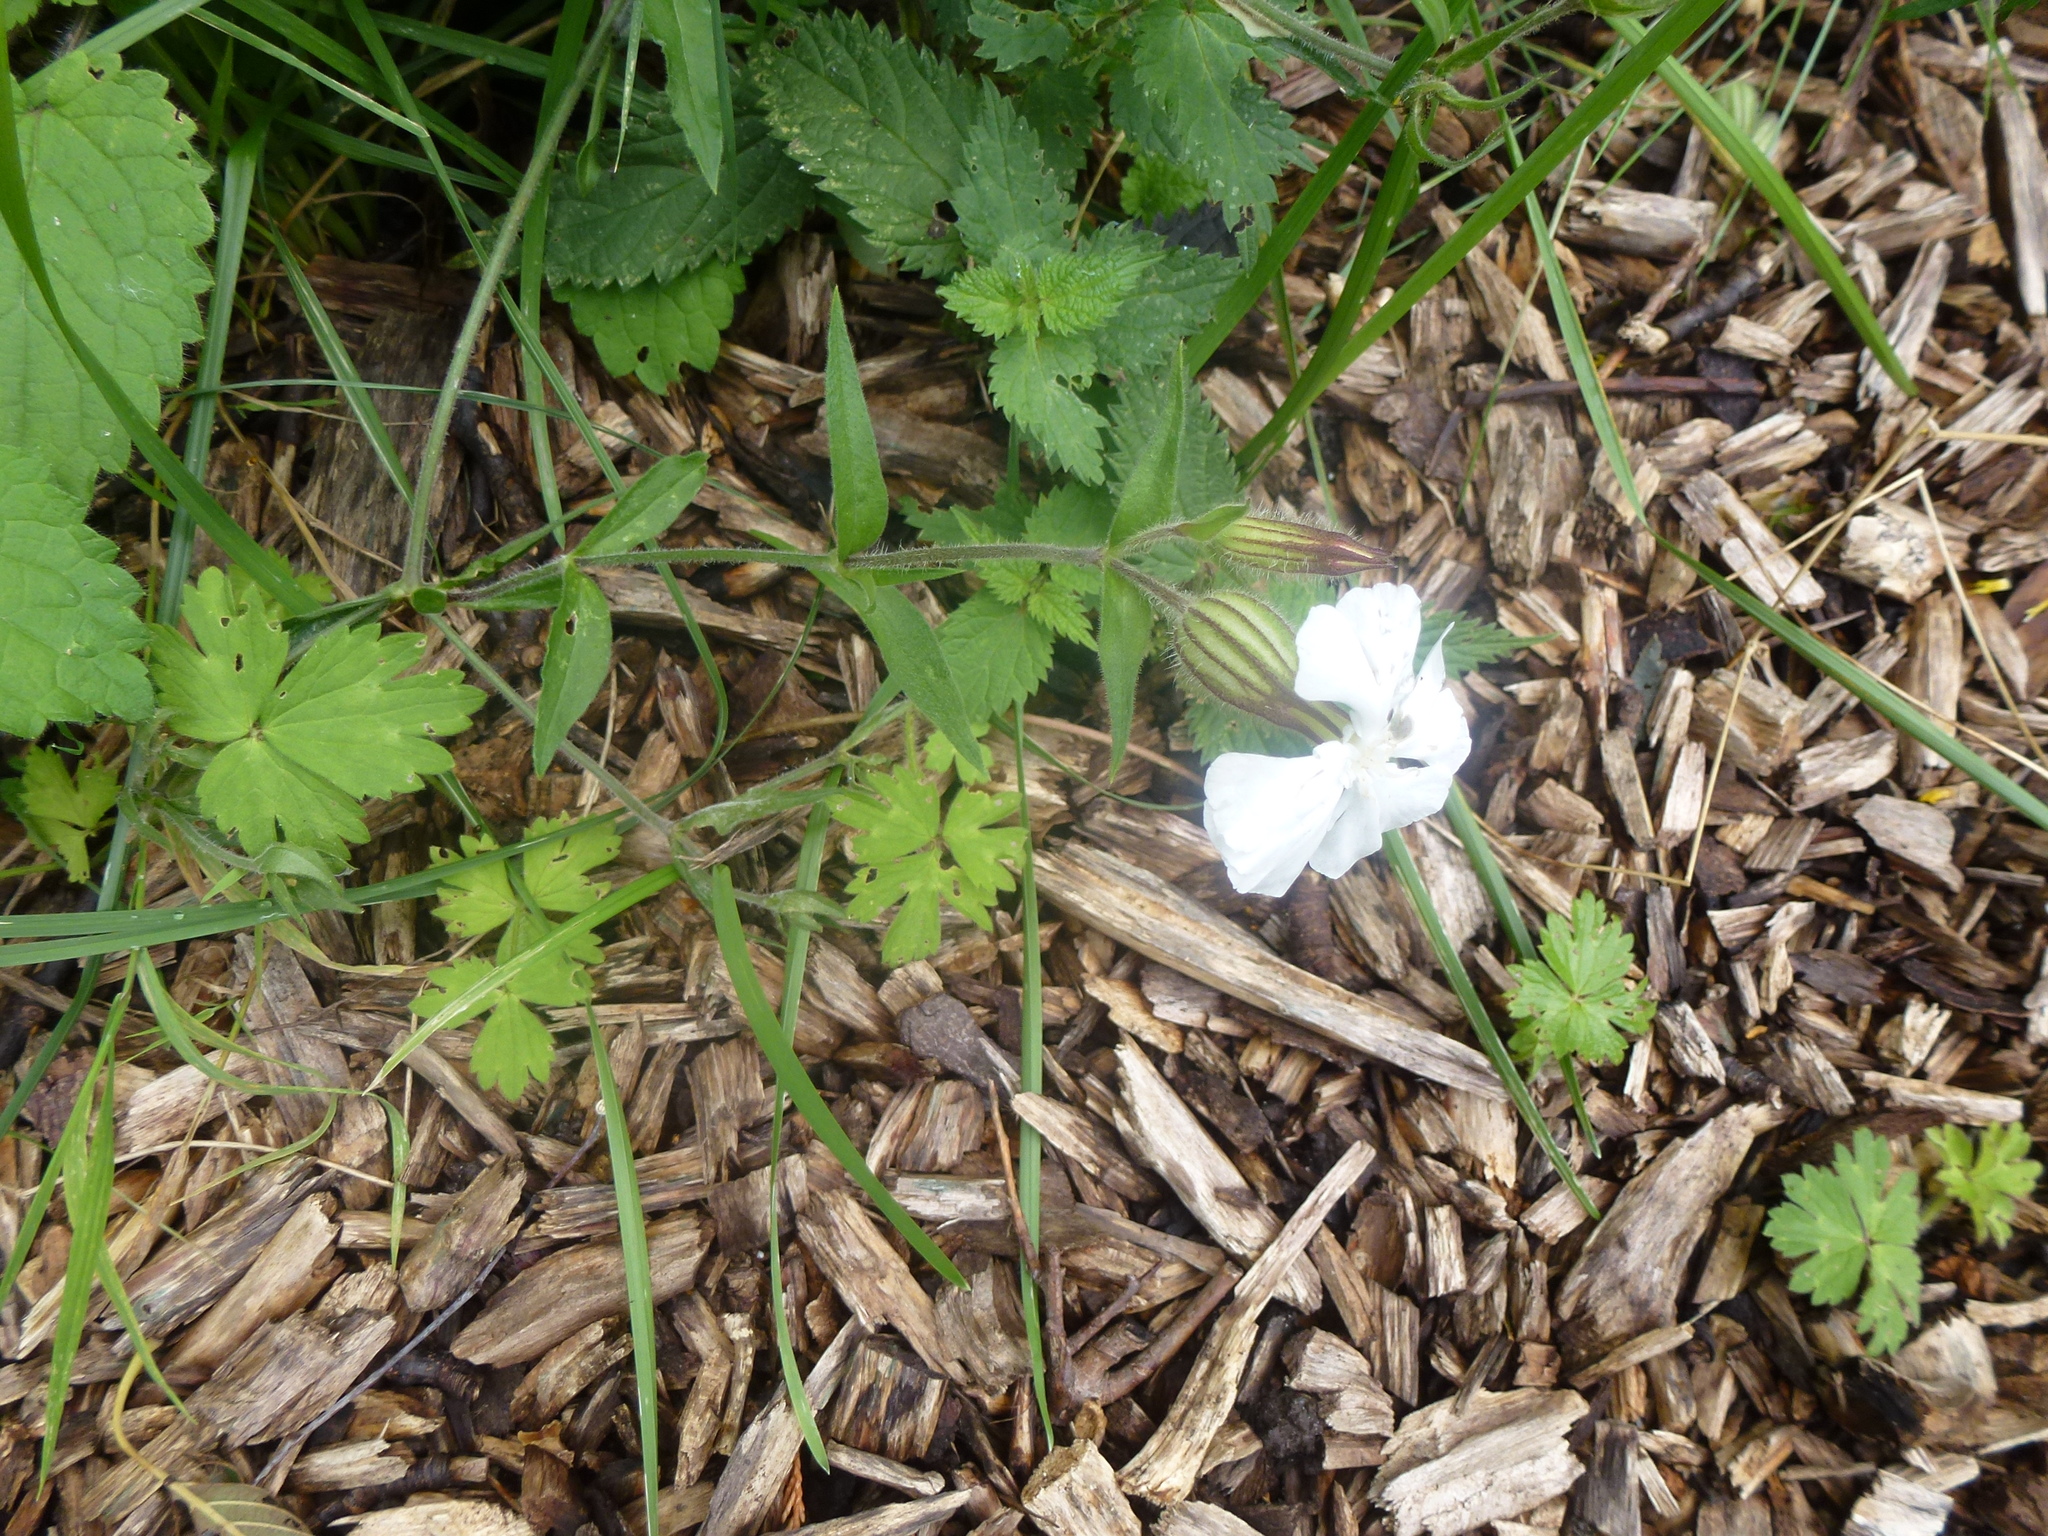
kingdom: Plantae
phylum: Tracheophyta
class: Magnoliopsida
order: Caryophyllales
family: Caryophyllaceae
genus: Silene
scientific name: Silene latifolia
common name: White campion
